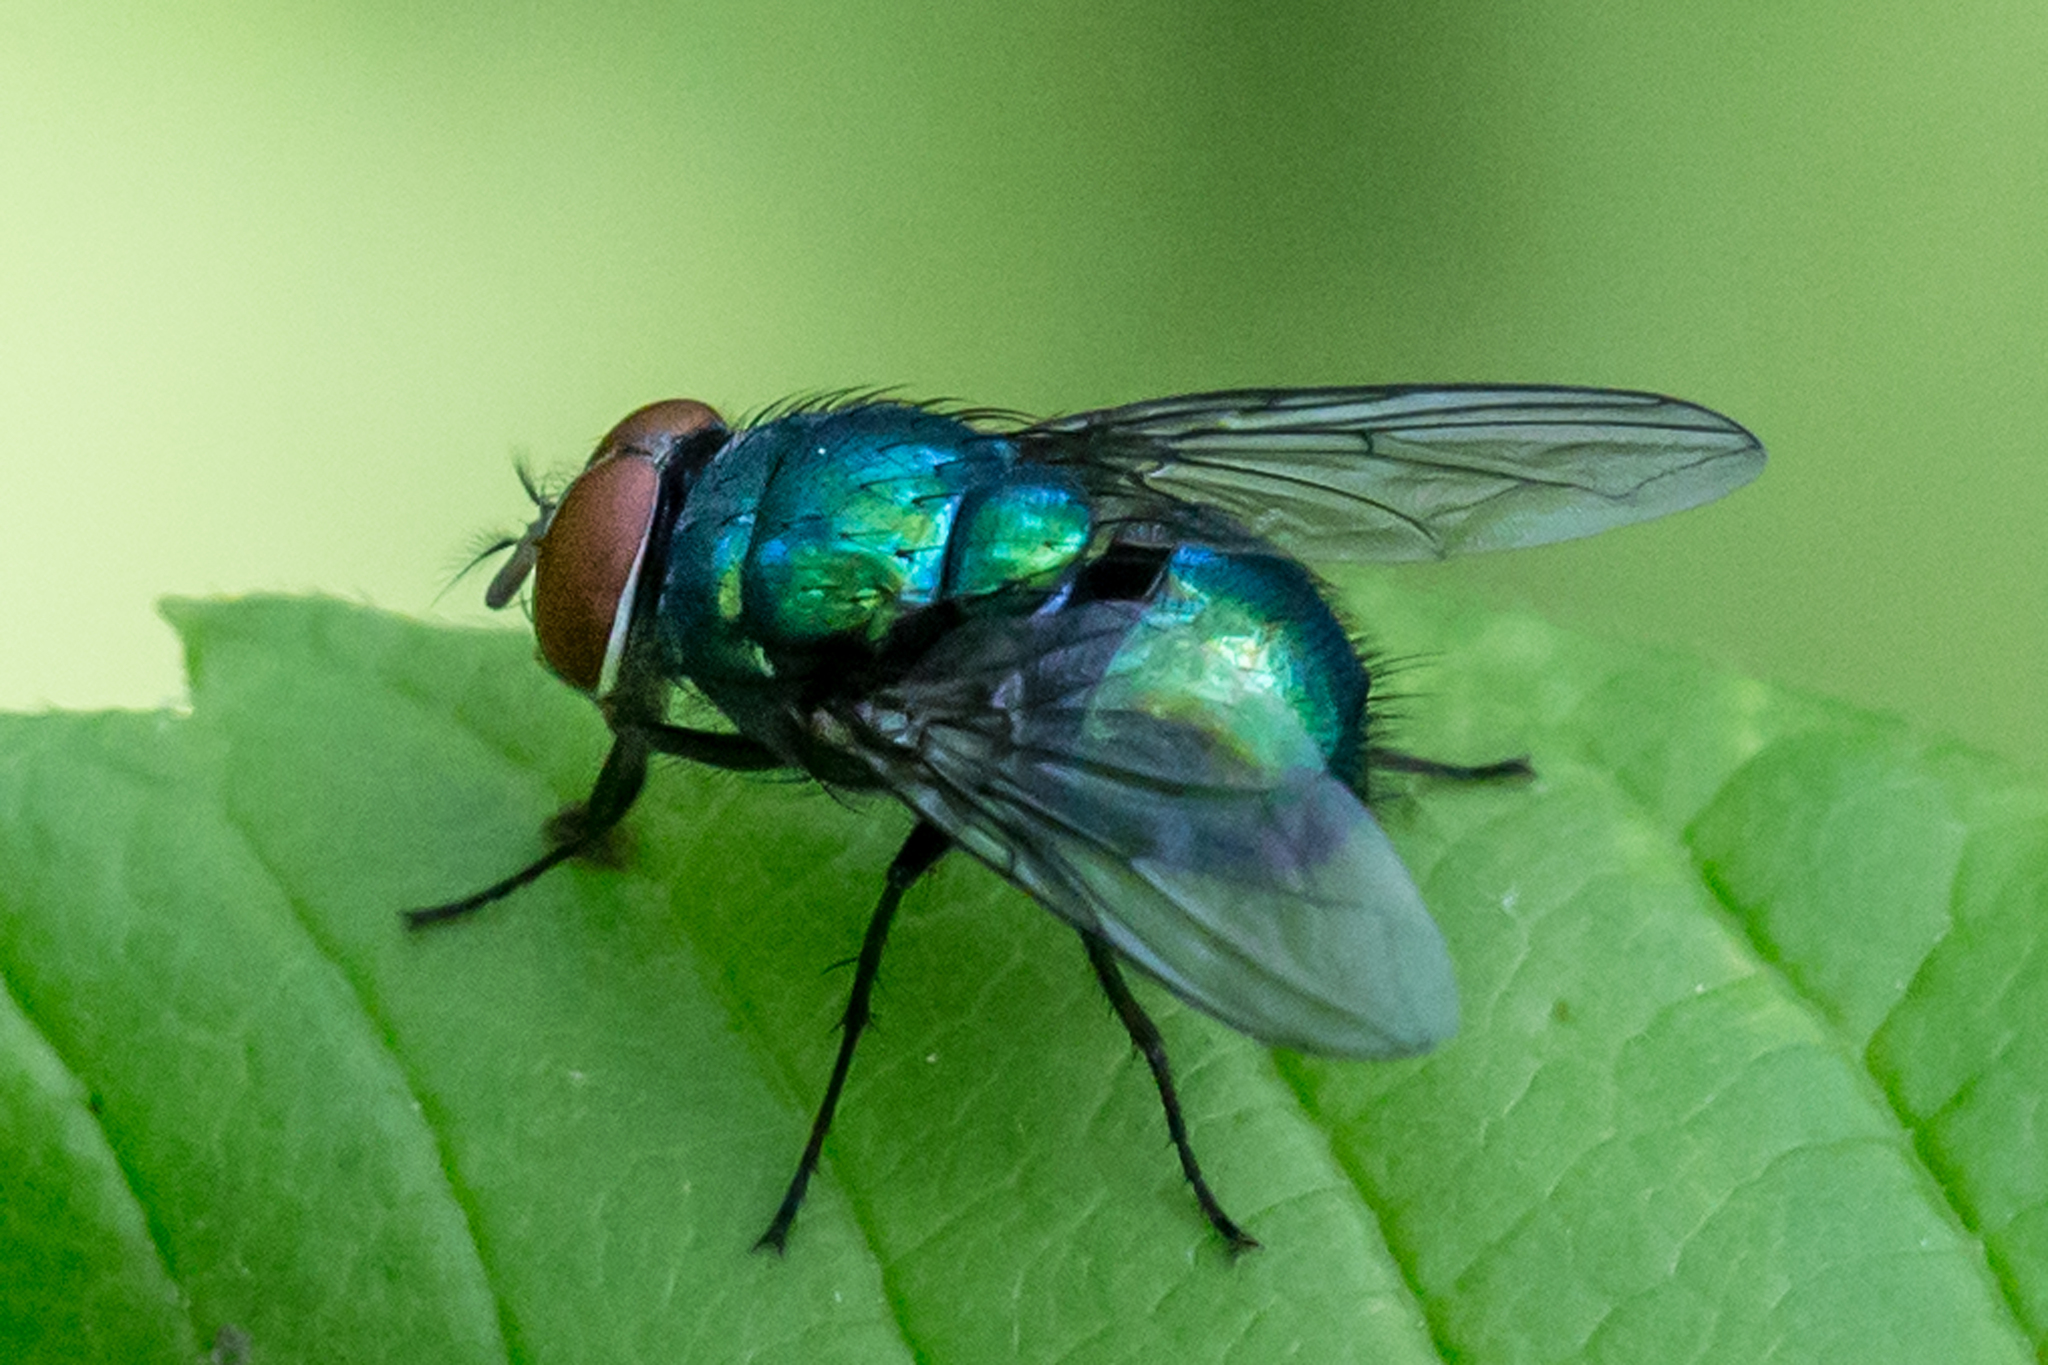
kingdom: Animalia
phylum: Arthropoda
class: Insecta
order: Diptera
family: Calliphoridae
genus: Lucilia
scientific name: Lucilia illustris
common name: Illustrious greenbottle
